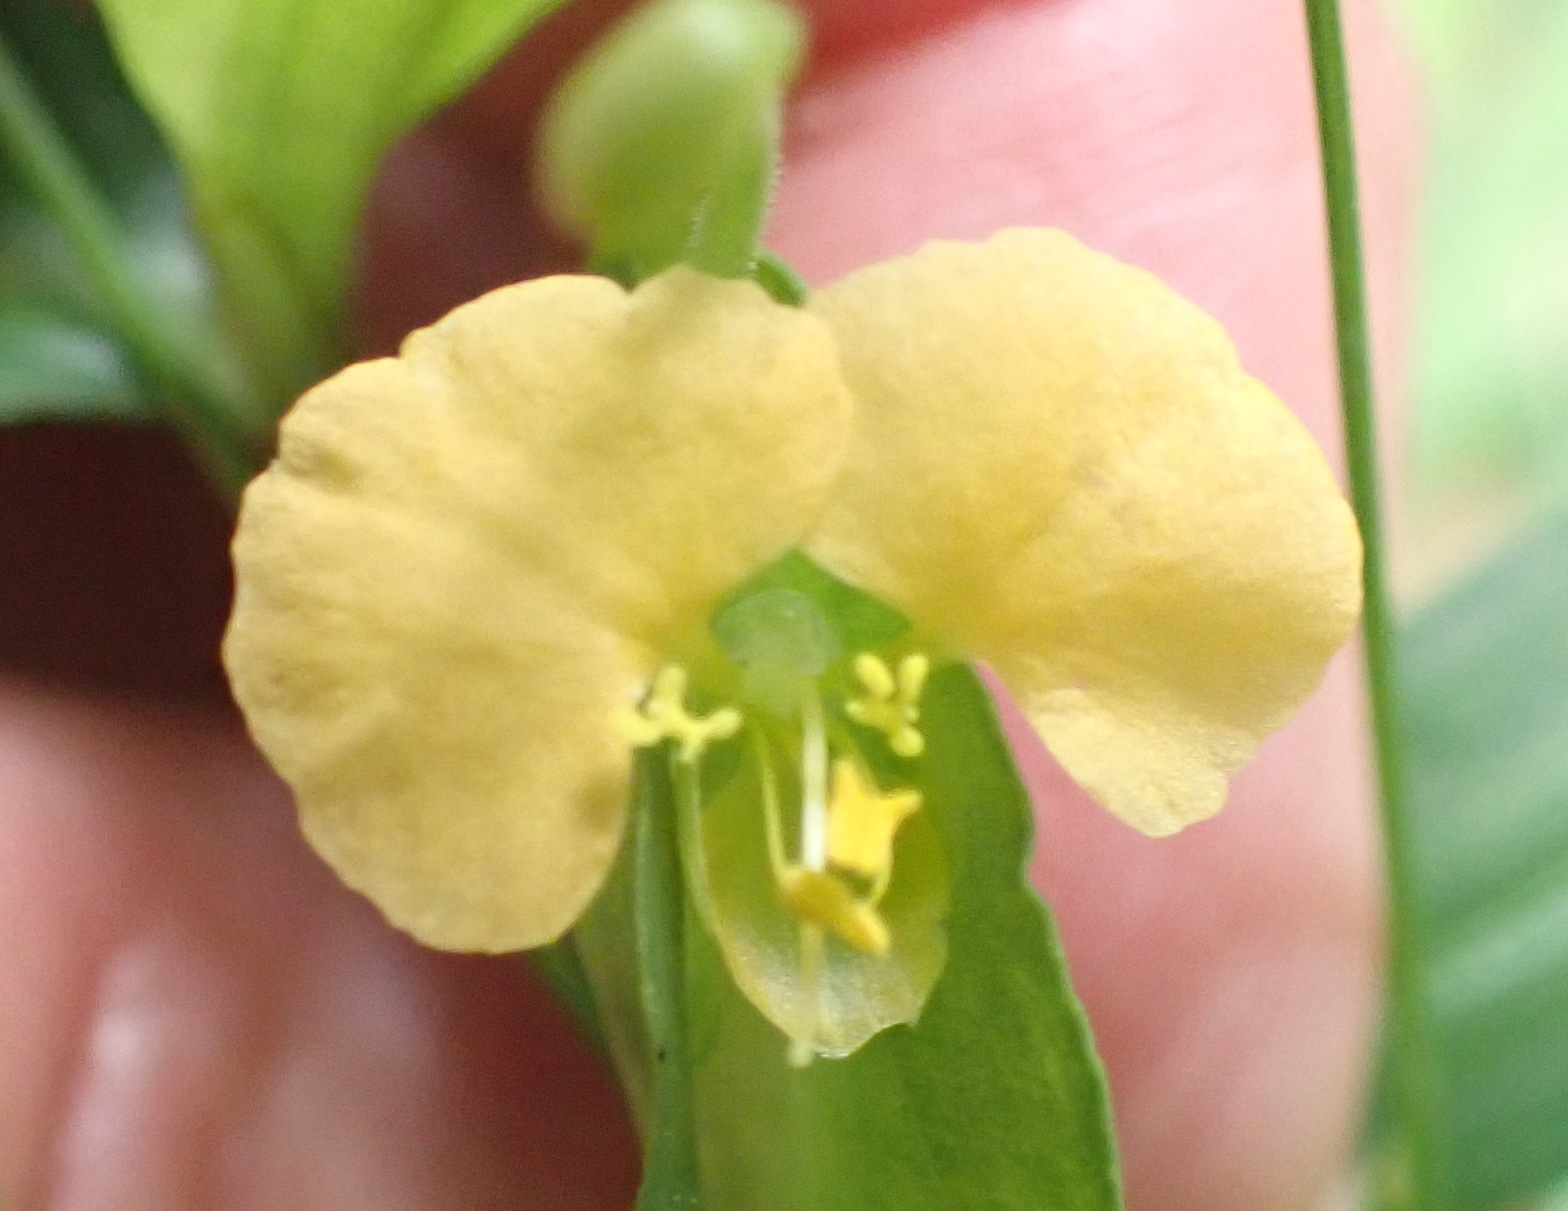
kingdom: Plantae
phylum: Tracheophyta
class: Liliopsida
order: Commelinales
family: Commelinaceae
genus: Commelina
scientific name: Commelina africana
